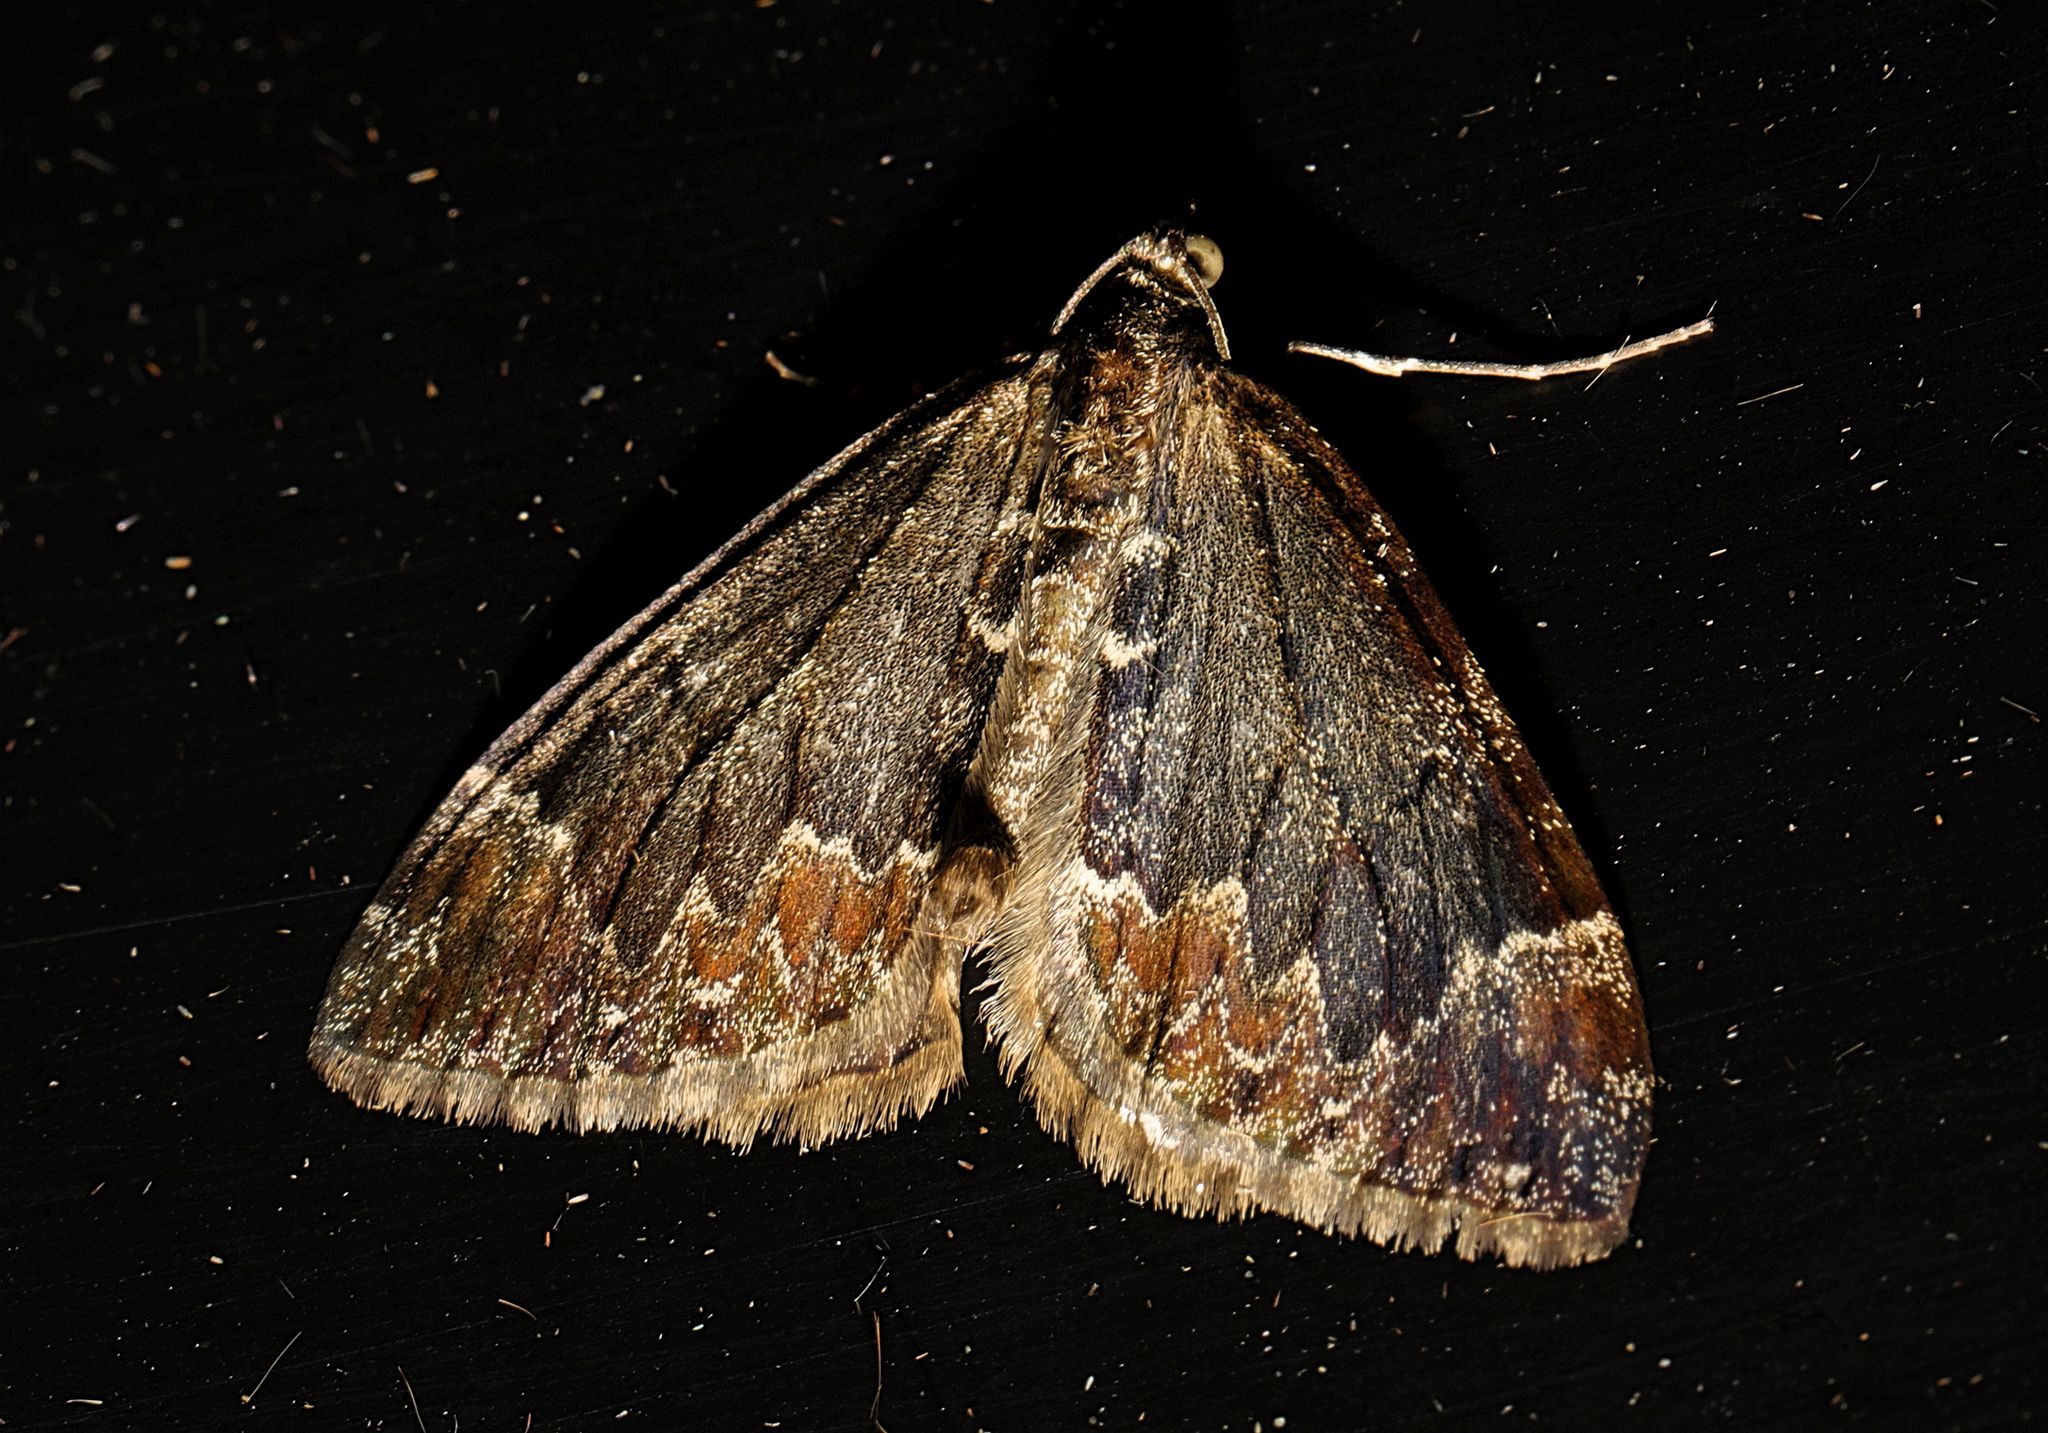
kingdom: Animalia
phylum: Arthropoda
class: Insecta
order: Lepidoptera
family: Geometridae
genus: Dysstroma
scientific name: Dysstroma truncata
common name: Common marbled carpet
